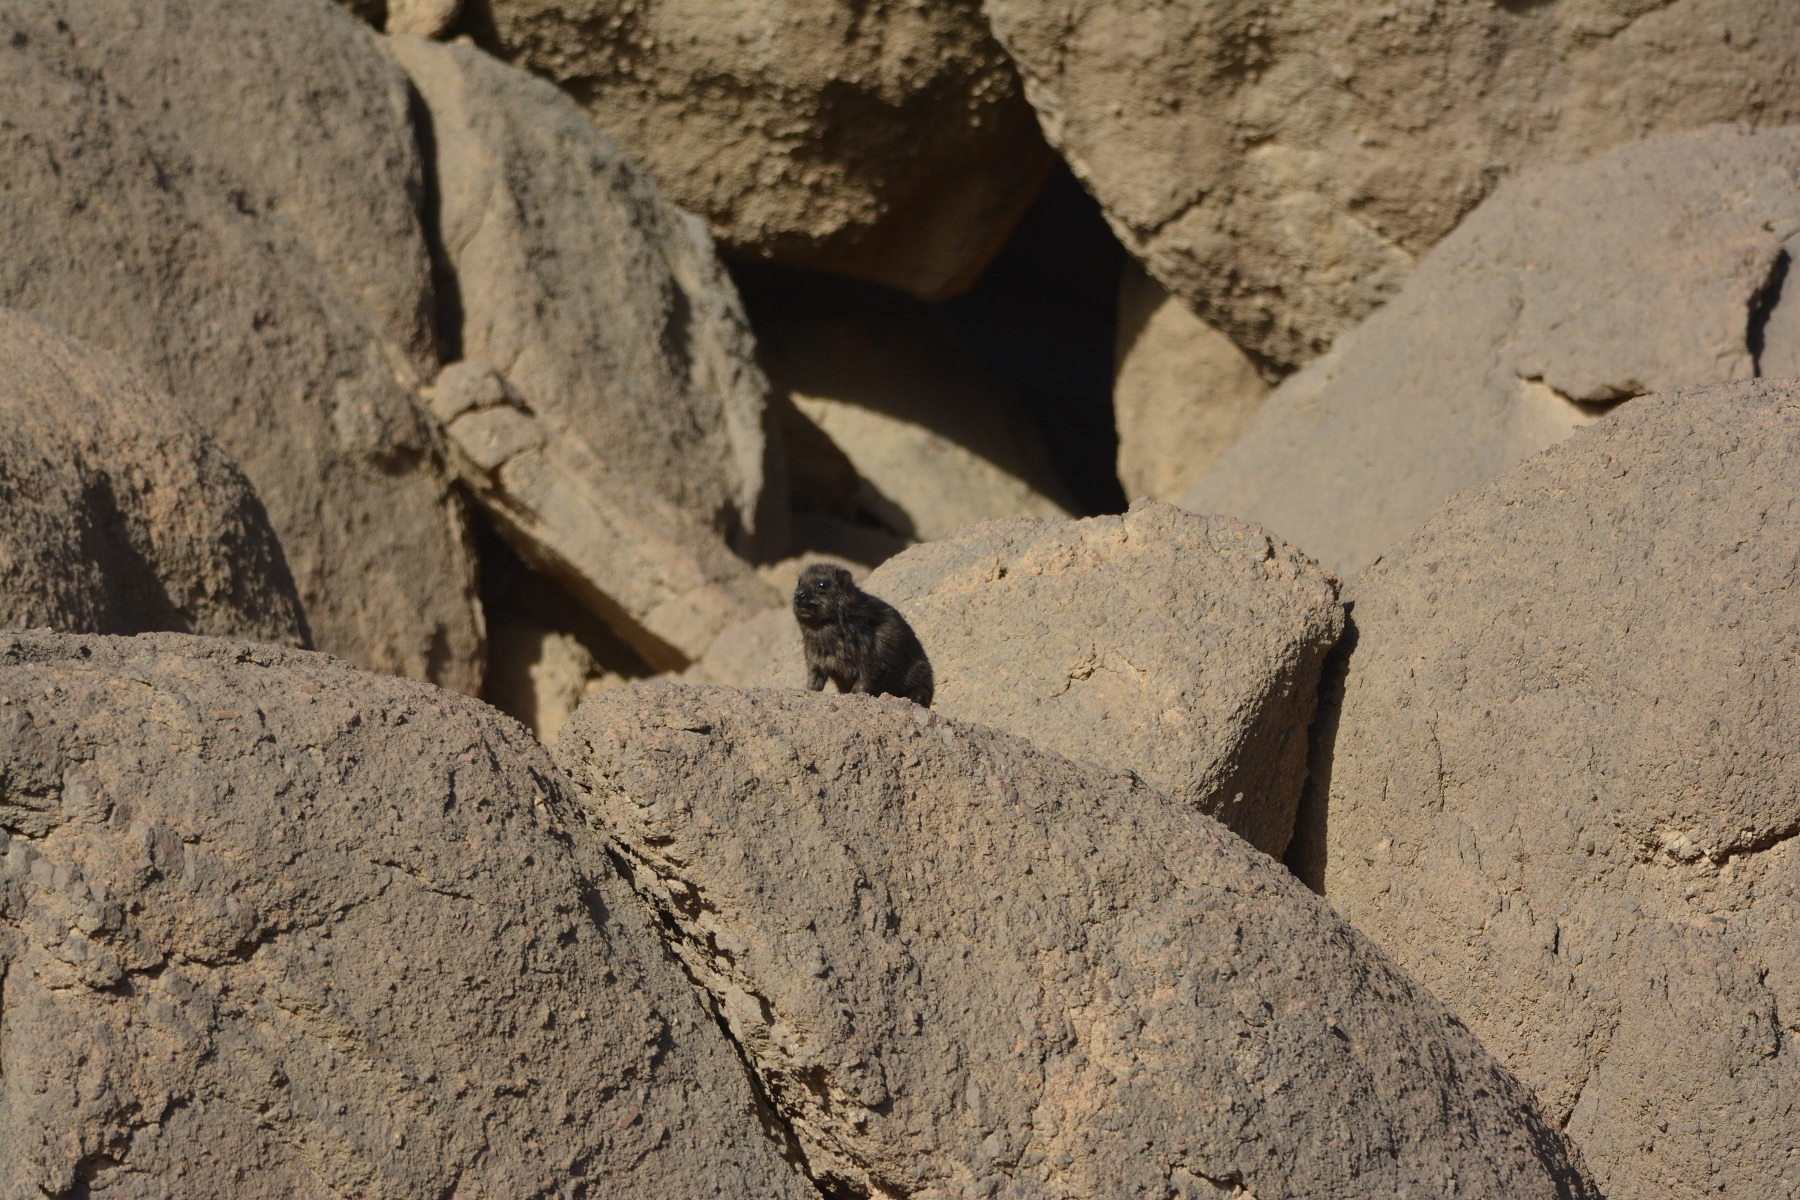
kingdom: Animalia
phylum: Chordata
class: Mammalia
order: Hyracoidea
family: Procaviidae
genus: Procavia
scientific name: Procavia capensis
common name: Rock hyrax
